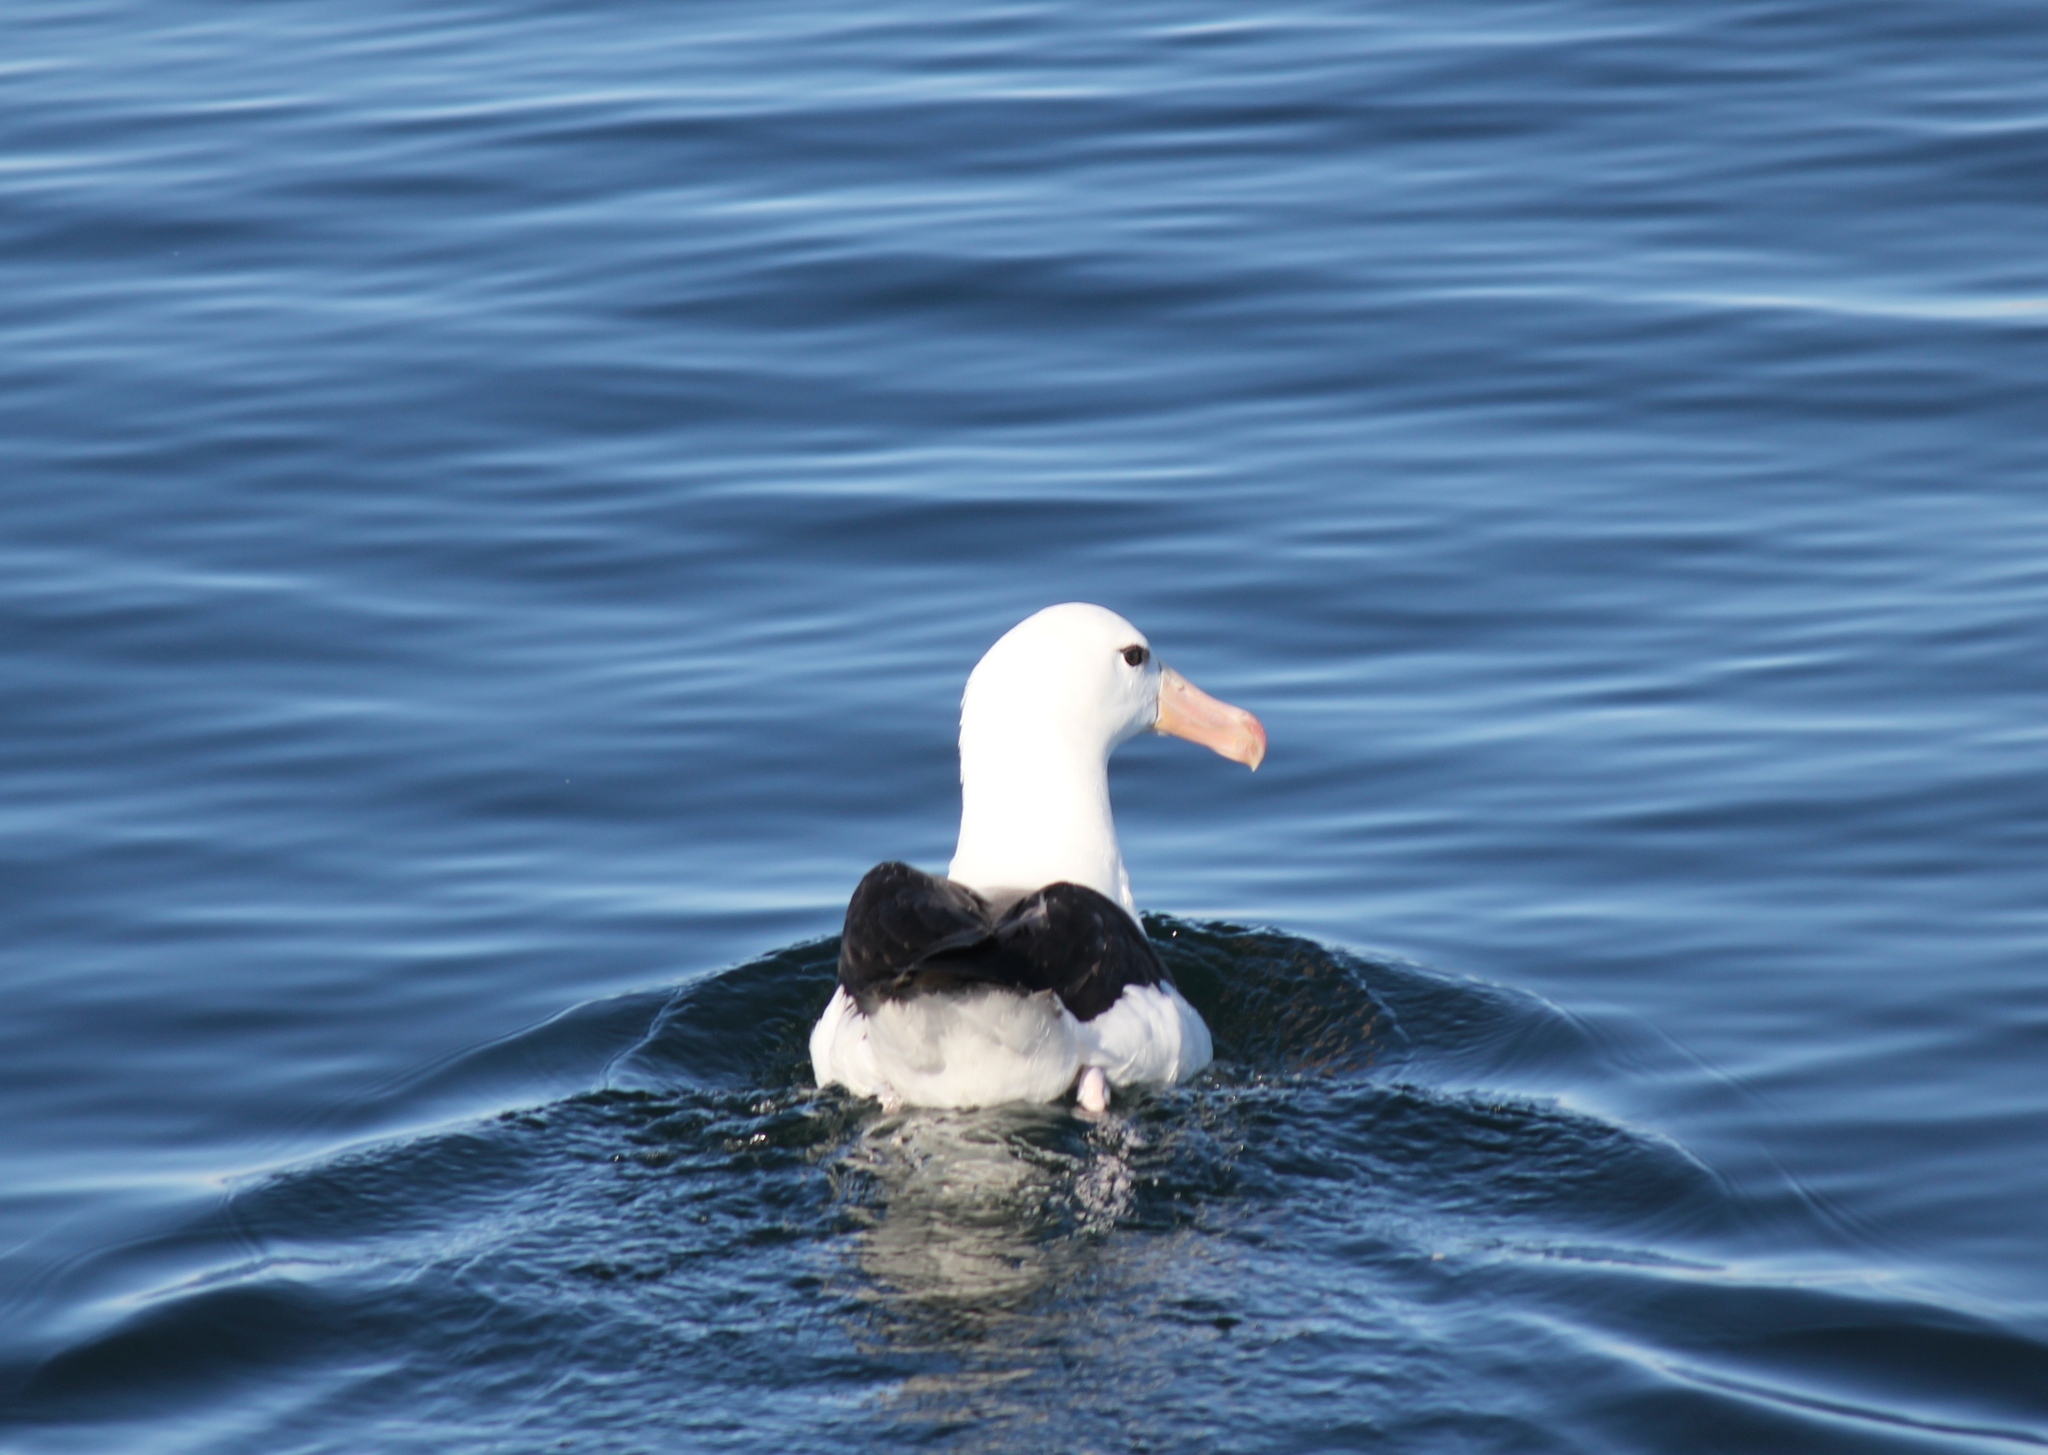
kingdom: Animalia
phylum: Chordata
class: Aves
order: Procellariiformes
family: Diomedeidae
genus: Thalassarche
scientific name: Thalassarche melanophris
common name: Black-browed albatross
